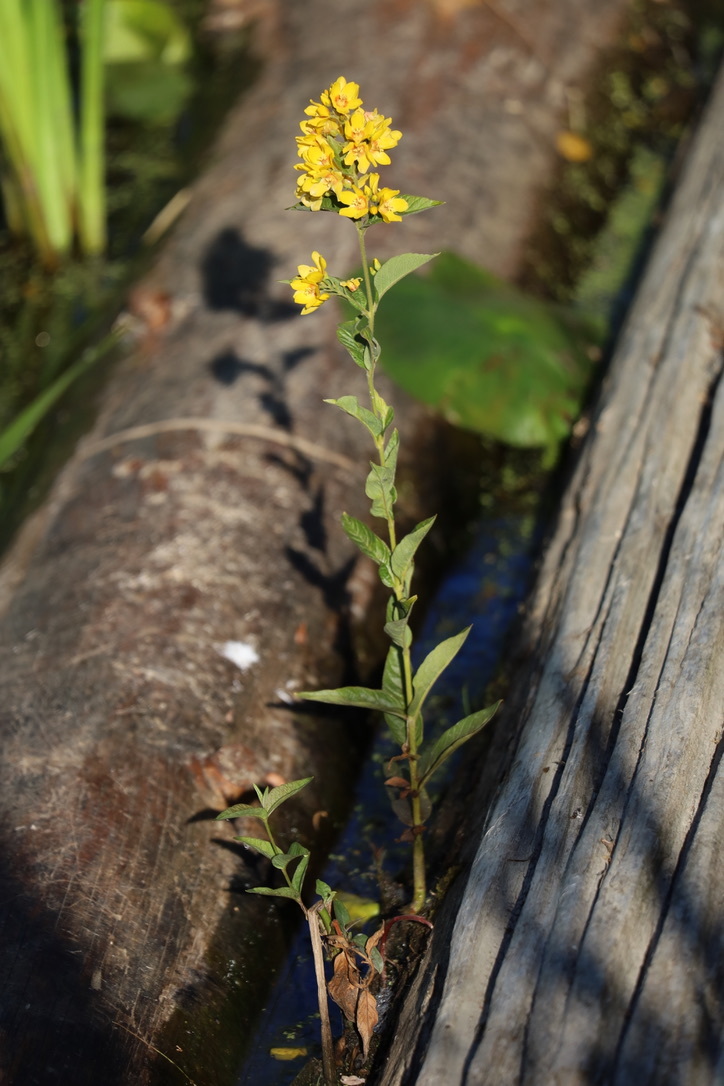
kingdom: Plantae
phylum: Tracheophyta
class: Magnoliopsida
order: Ericales
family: Primulaceae
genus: Lysimachia
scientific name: Lysimachia vulgaris
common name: Yellow loosestrife
